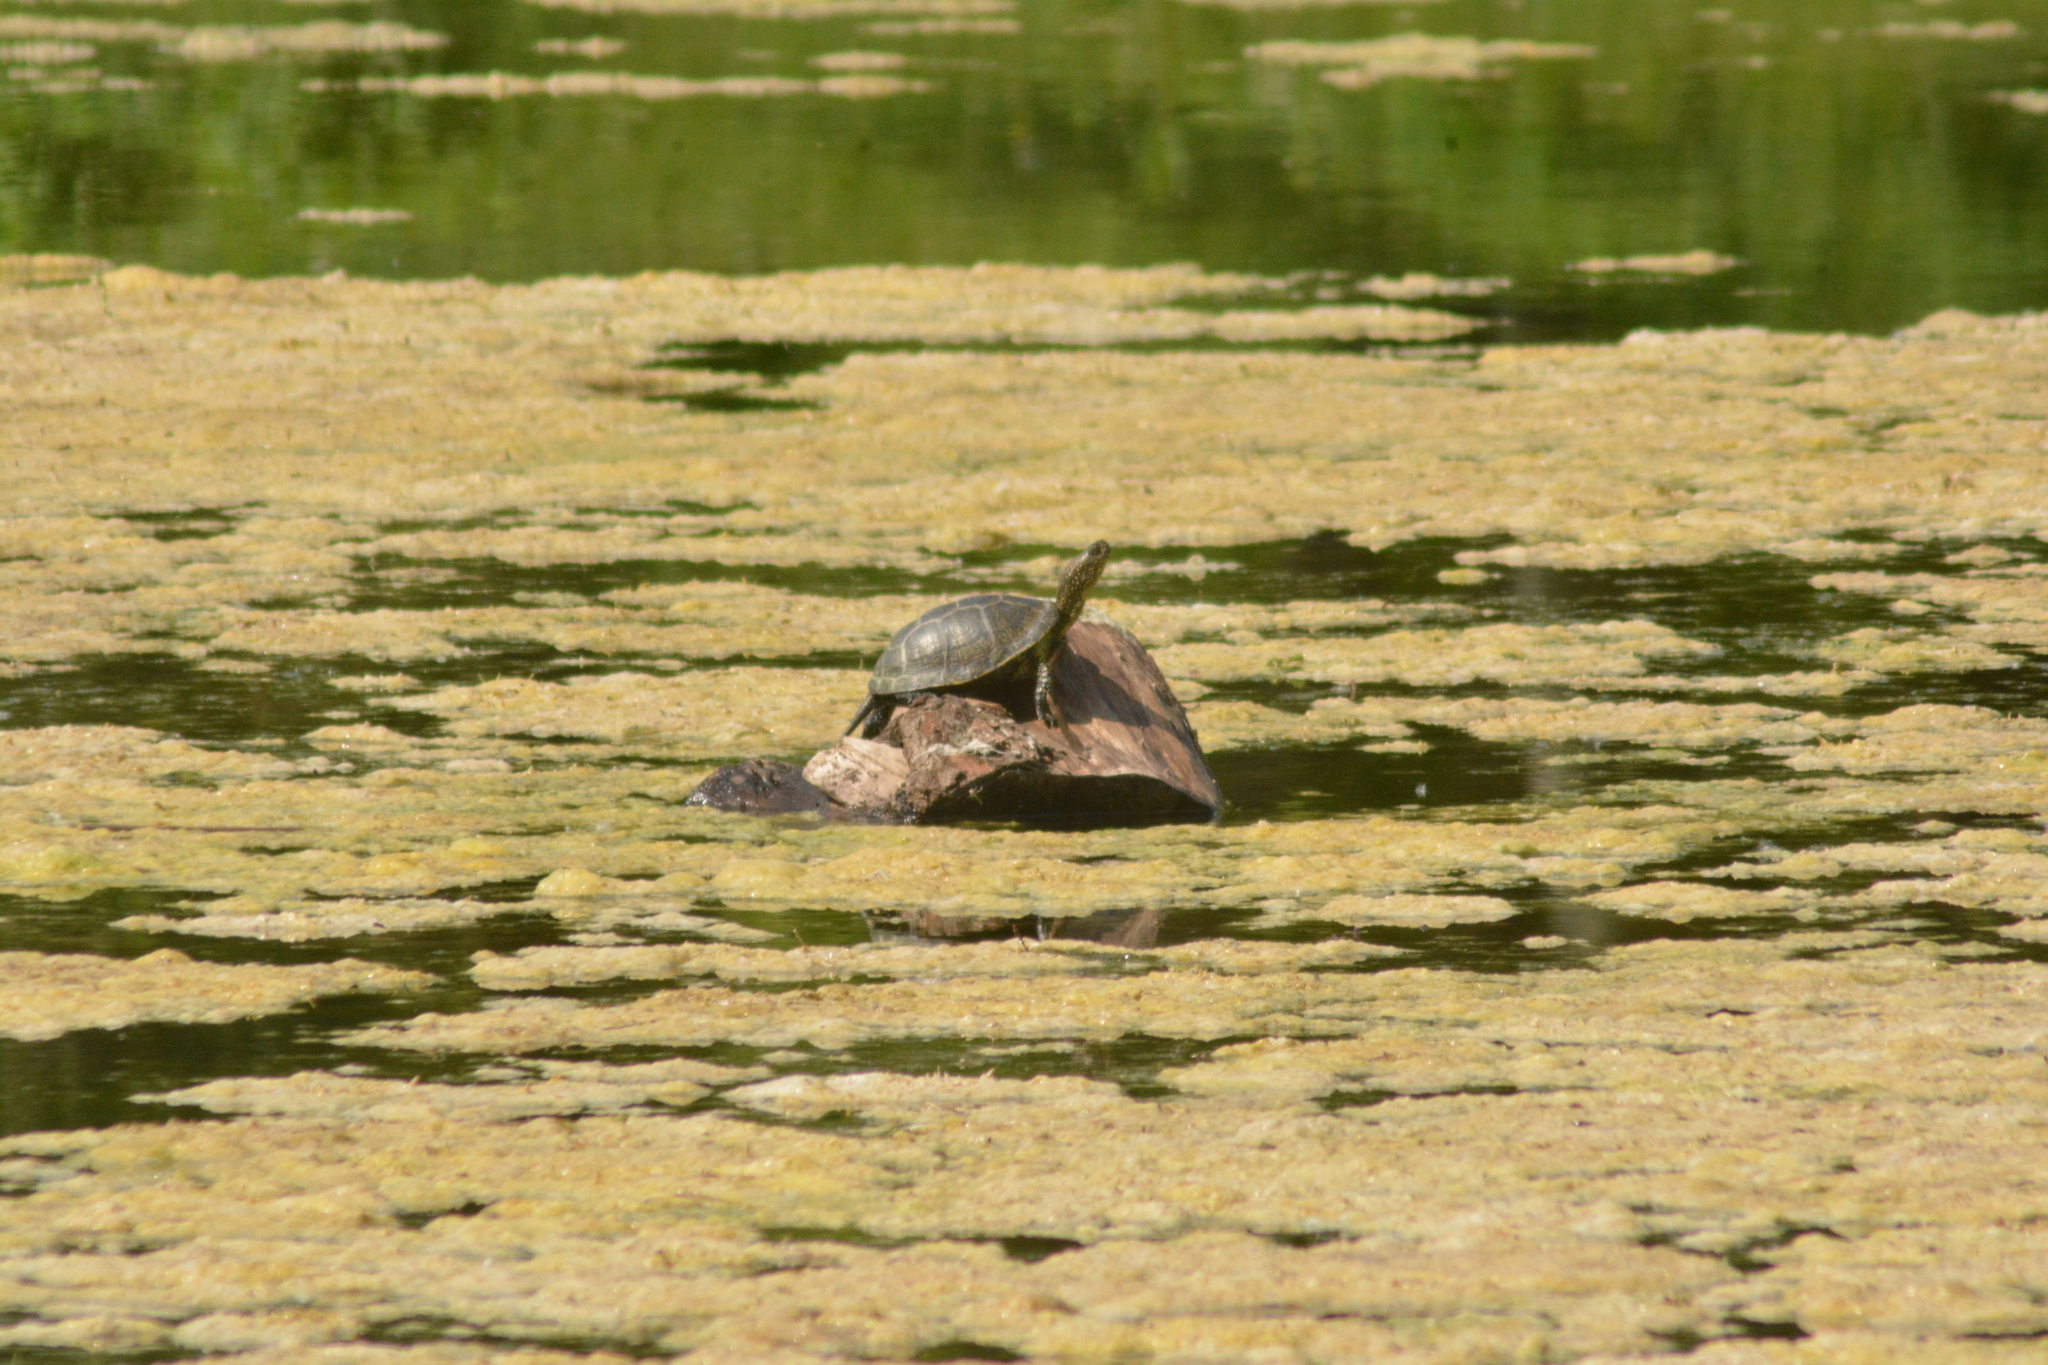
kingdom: Animalia
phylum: Chordata
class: Testudines
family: Emydidae
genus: Emys
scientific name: Emys orbicularis
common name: European pond turtle
